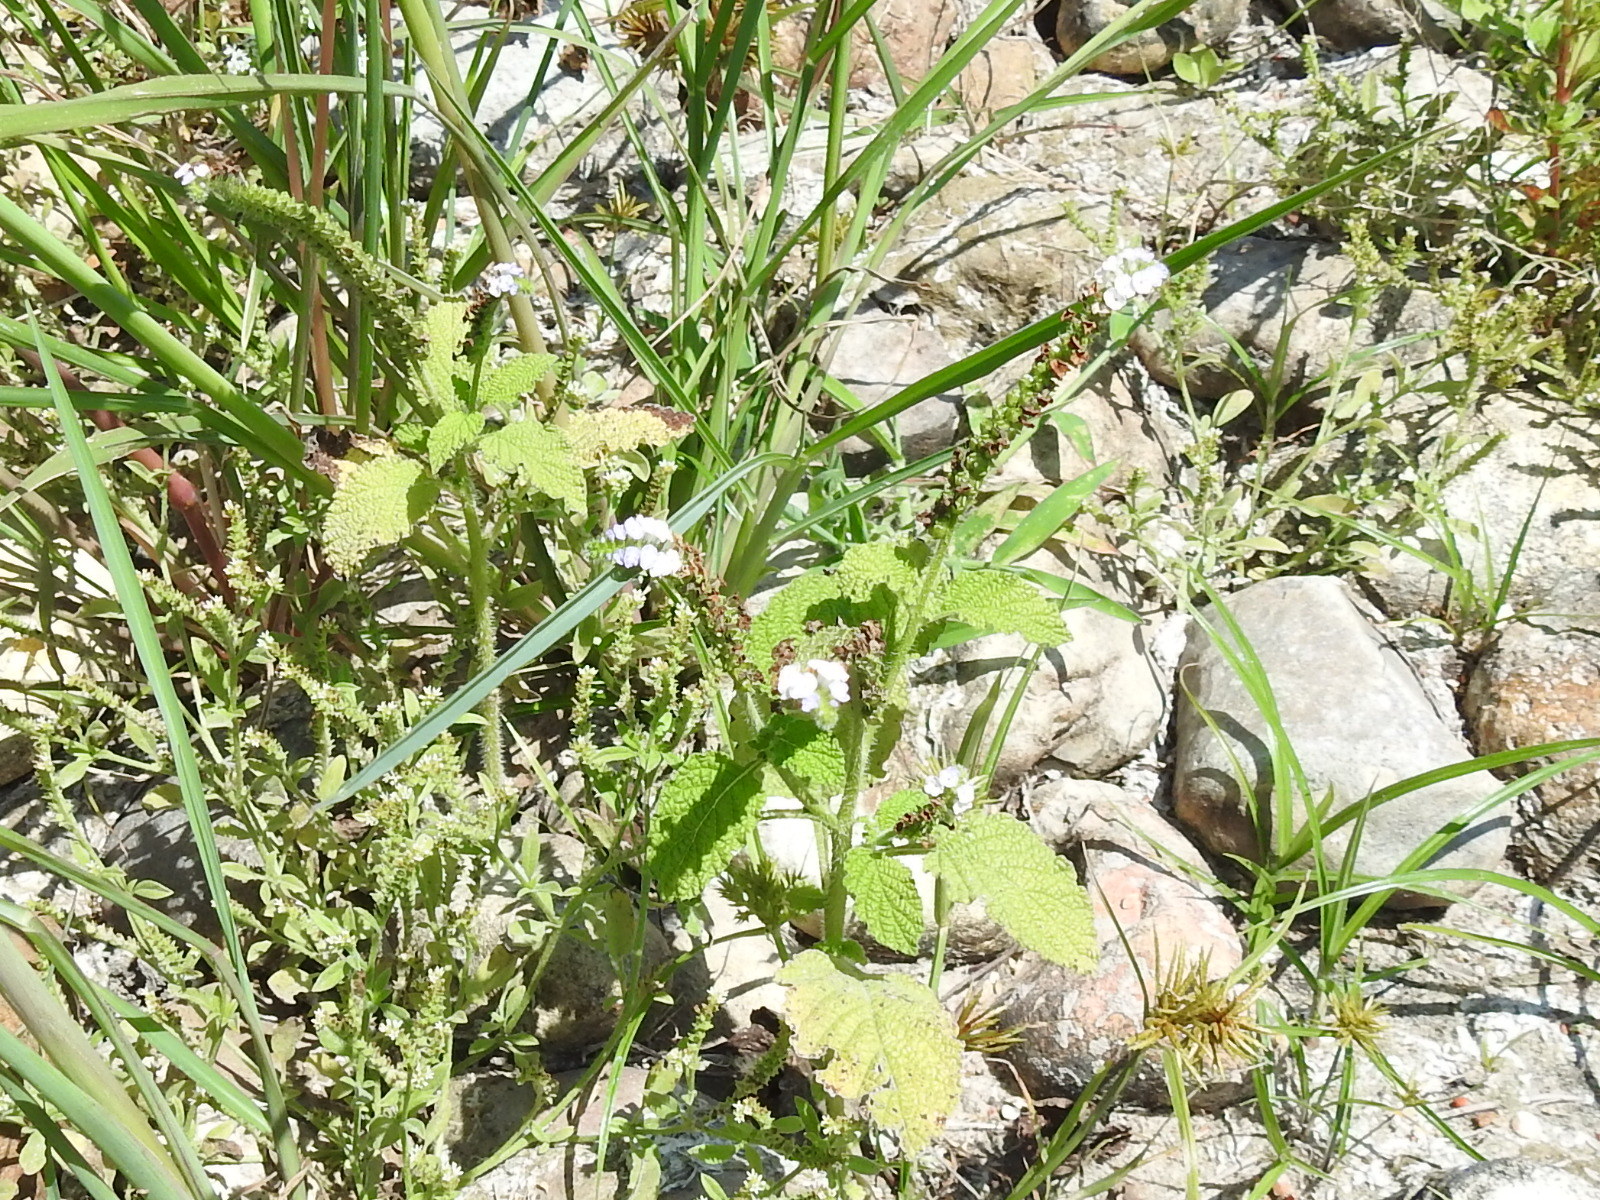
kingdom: Plantae
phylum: Tracheophyta
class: Magnoliopsida
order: Boraginales
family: Heliotropiaceae
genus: Heliotropium
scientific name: Heliotropium indicum
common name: Indian heliotrope
